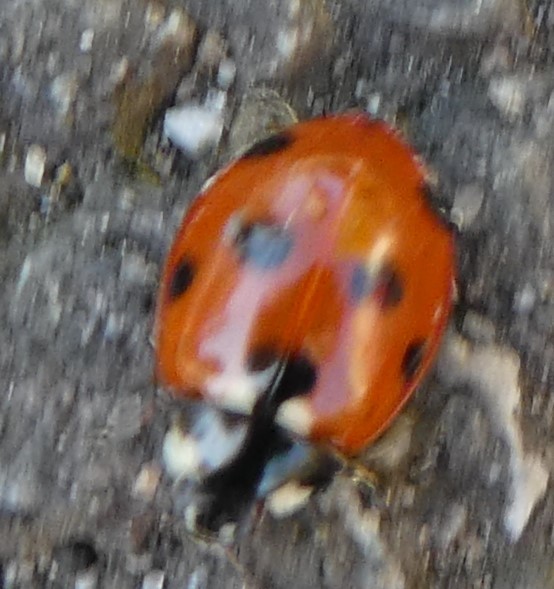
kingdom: Animalia
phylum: Arthropoda
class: Insecta
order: Coleoptera
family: Coccinellidae
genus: Coccinella
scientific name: Coccinella septempunctata
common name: Sevenspotted lady beetle
